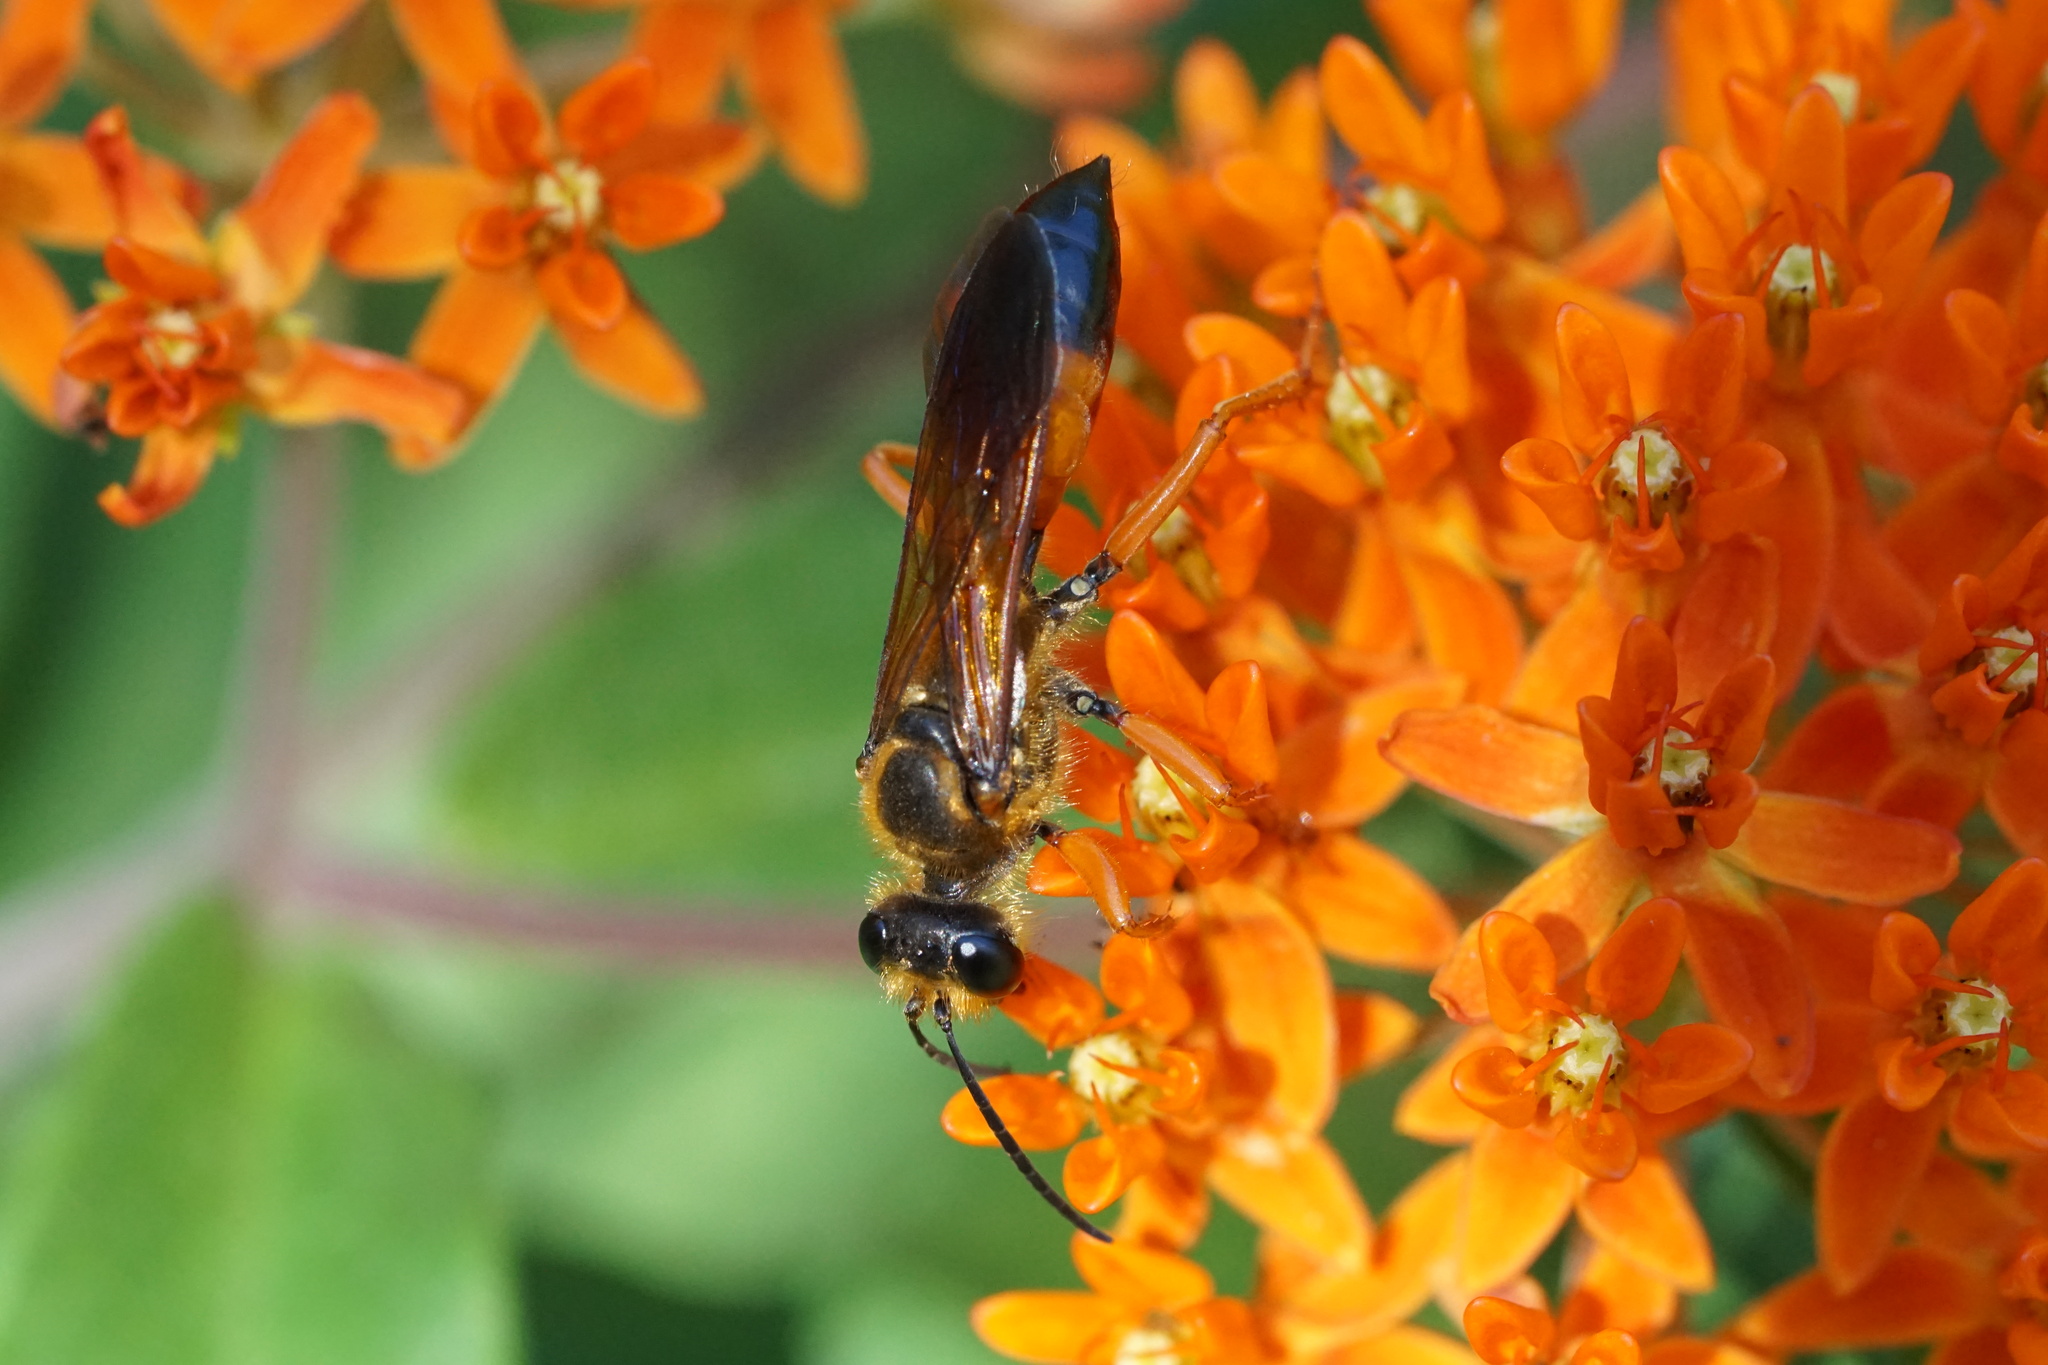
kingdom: Animalia
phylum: Arthropoda
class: Insecta
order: Hymenoptera
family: Sphecidae
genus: Sphex
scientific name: Sphex ichneumoneus
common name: Great golden digger wasp
